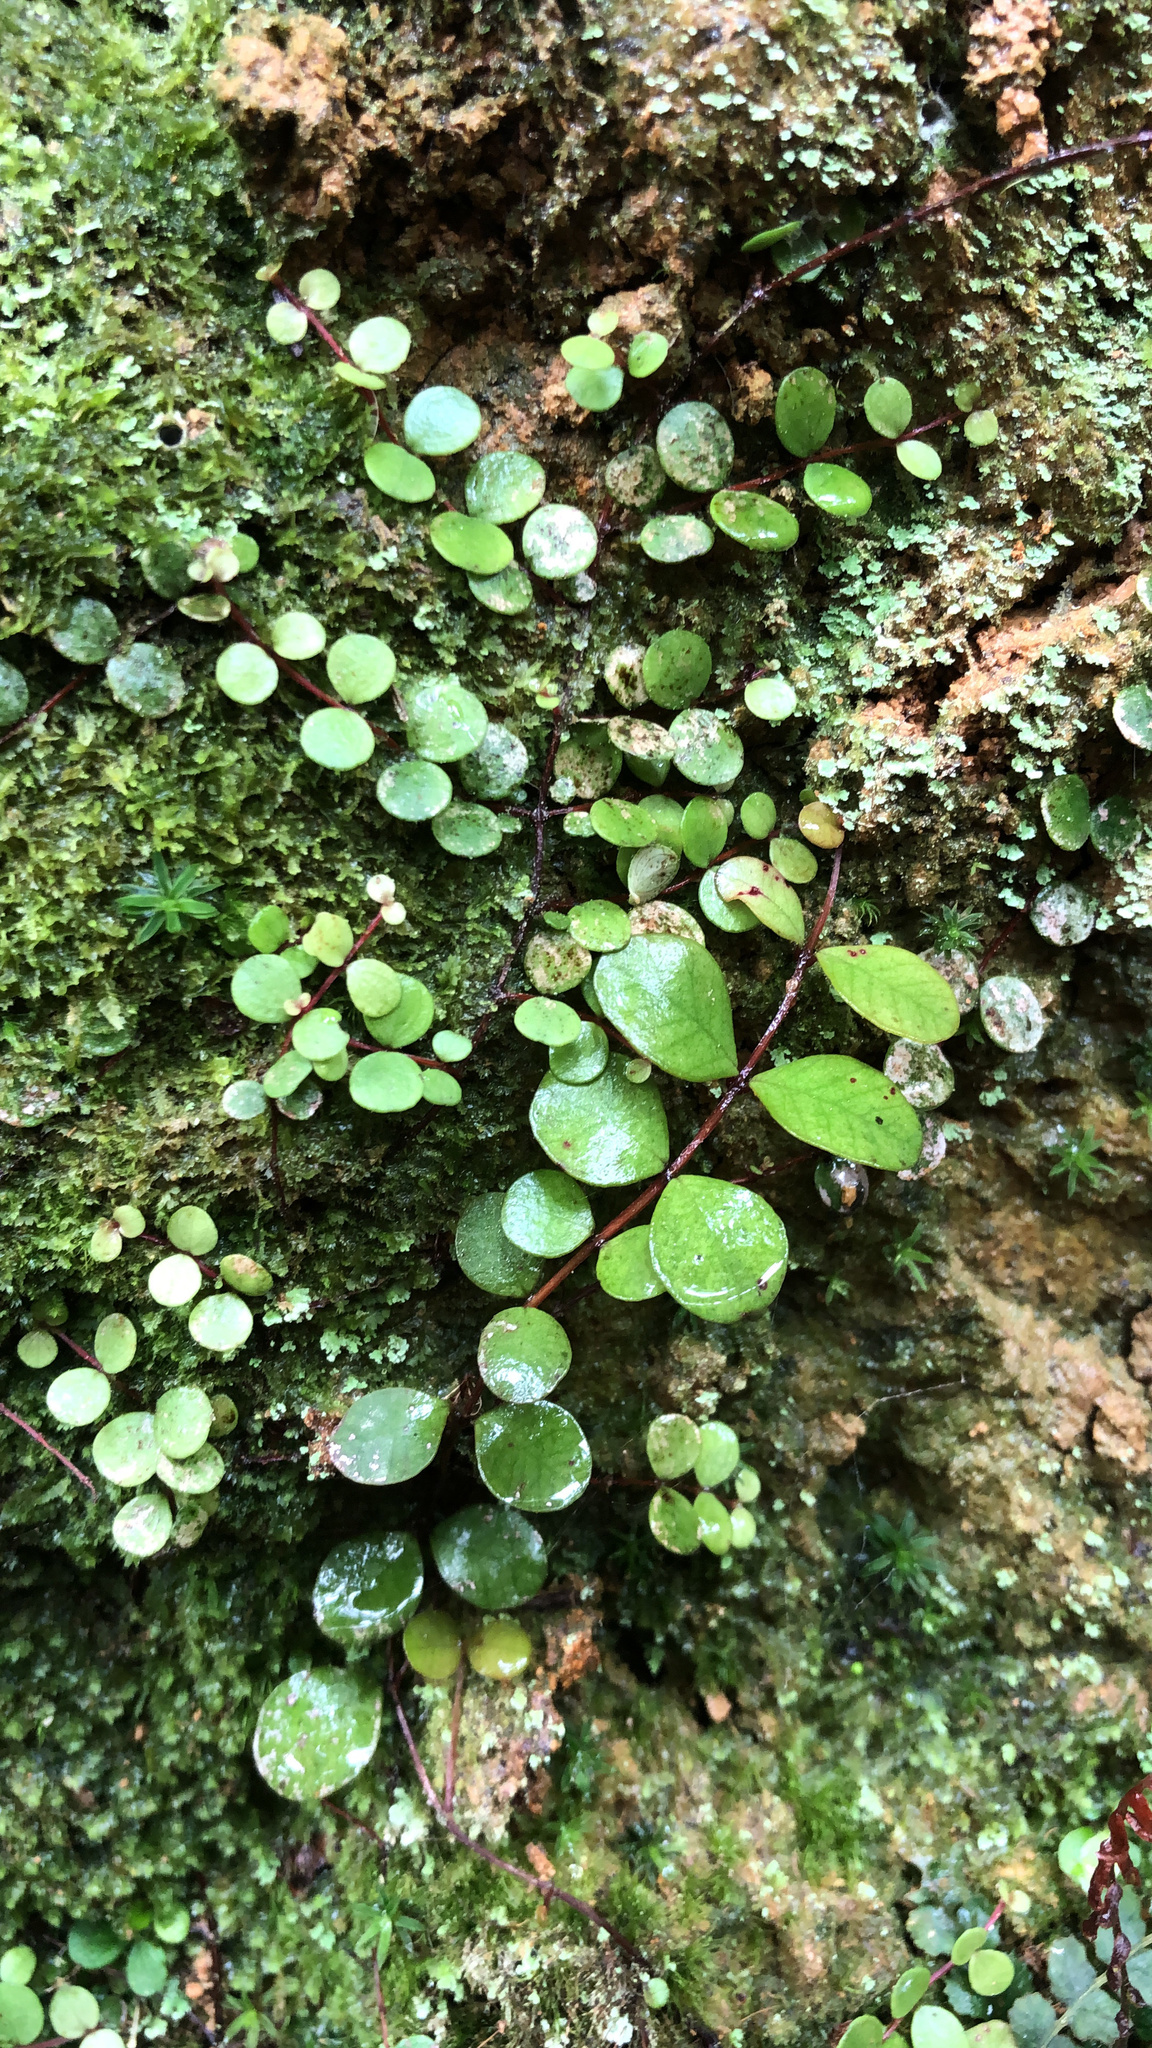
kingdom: Plantae
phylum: Tracheophyta
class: Magnoliopsida
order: Myrtales
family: Myrtaceae
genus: Metrosideros
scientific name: Metrosideros perforata
